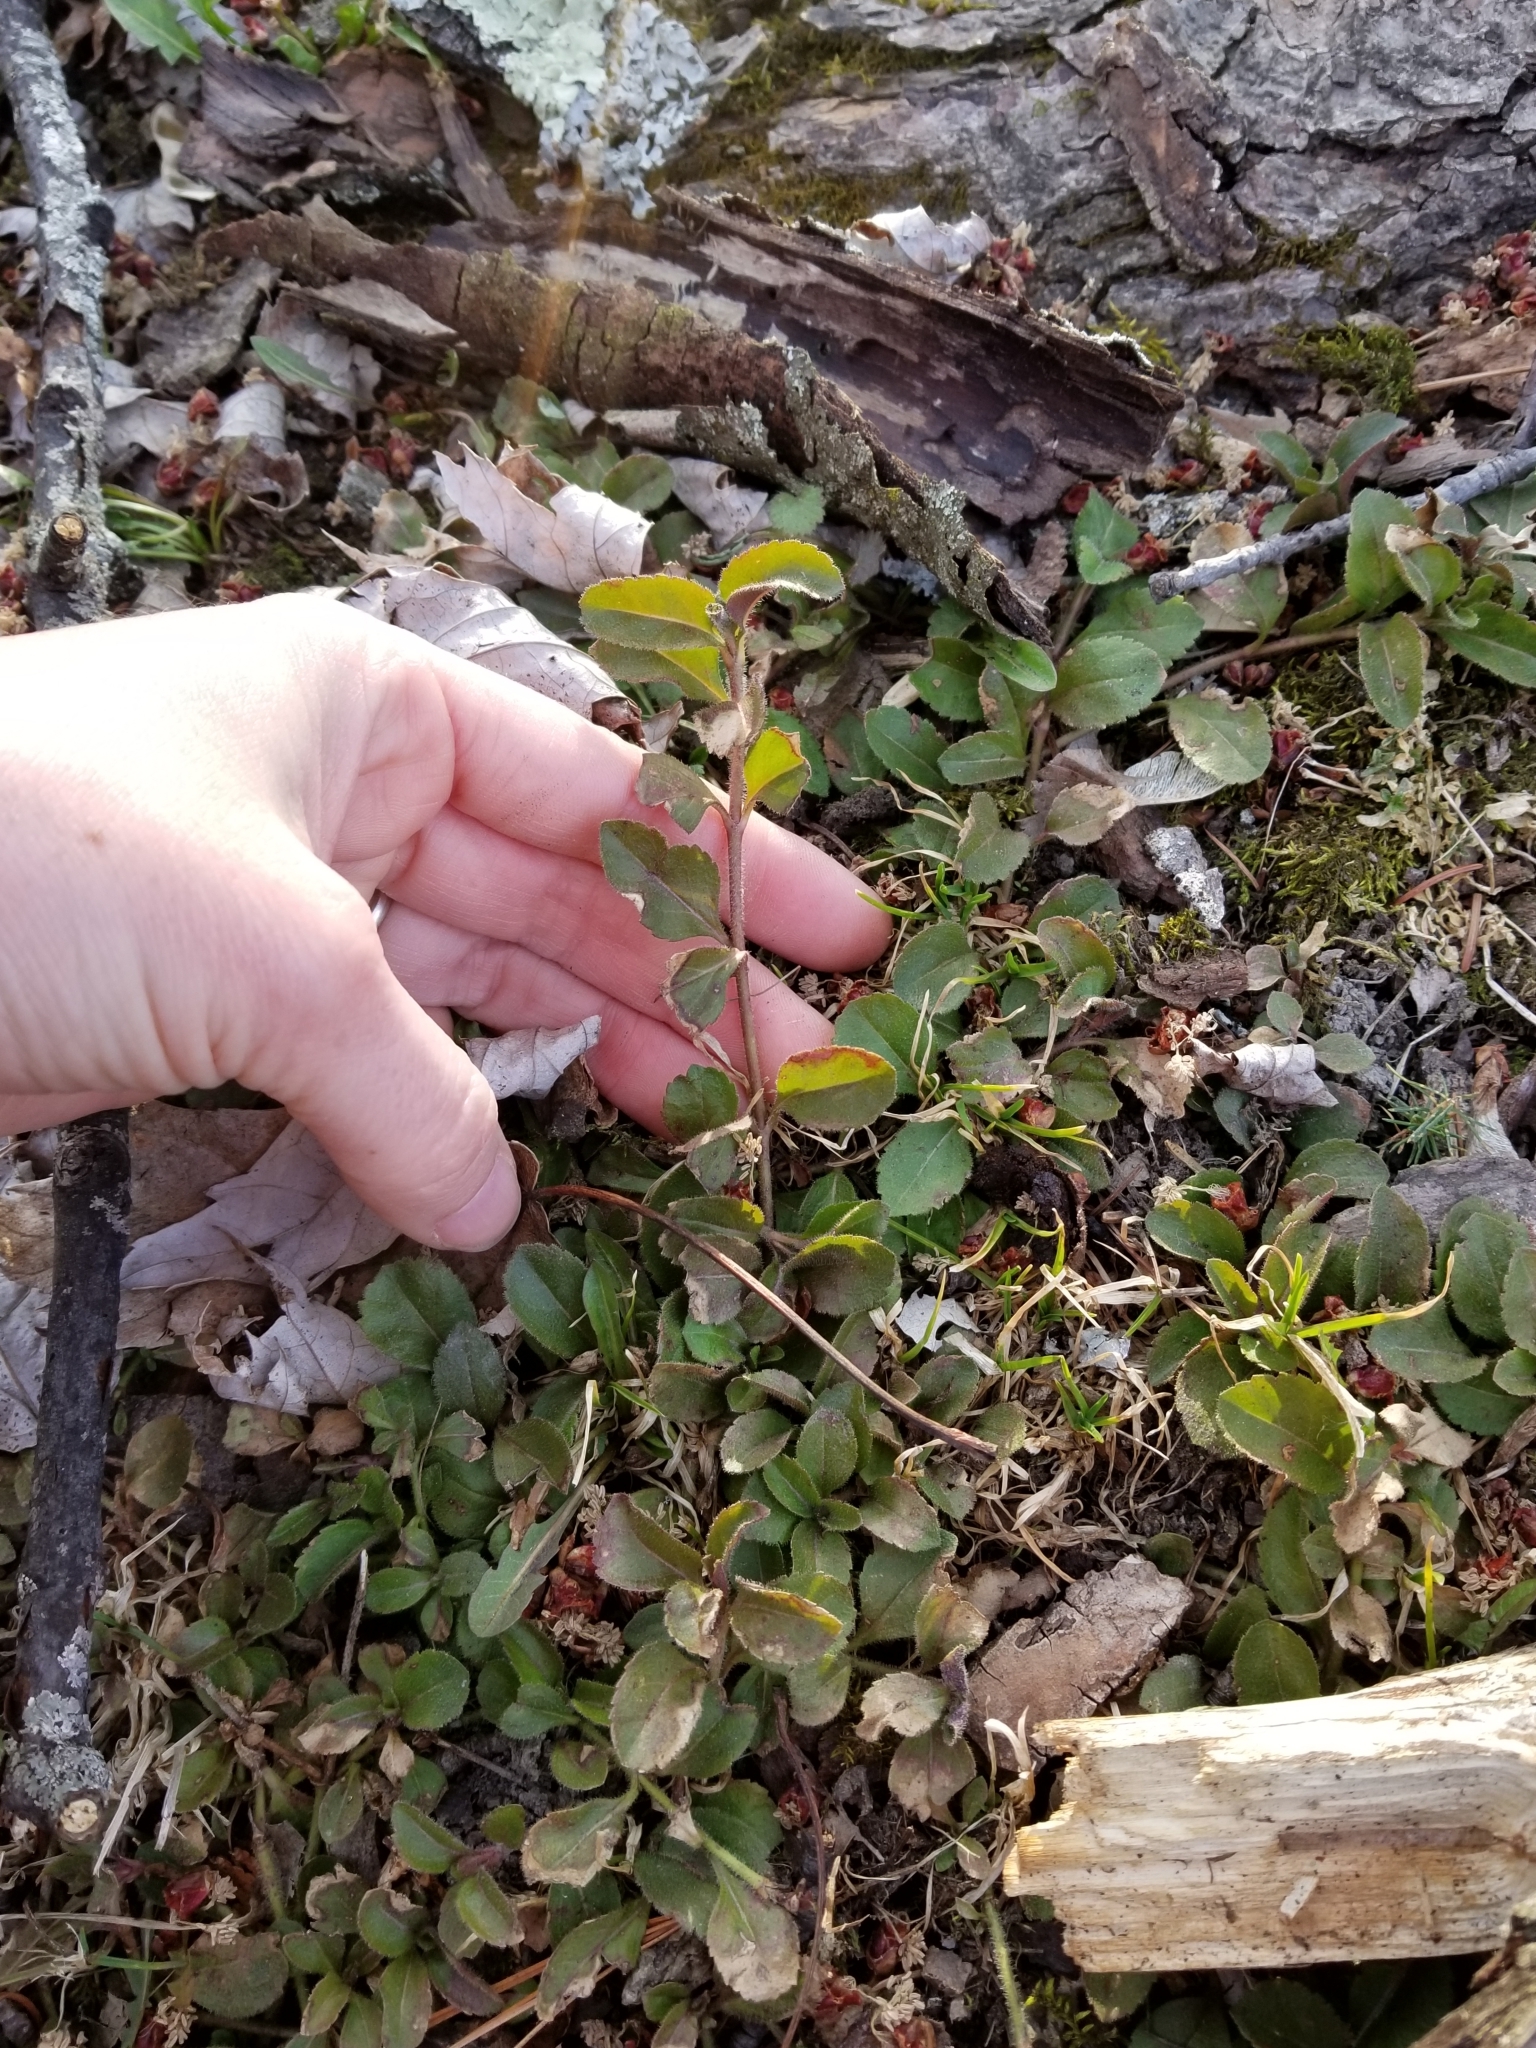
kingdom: Plantae
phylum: Tracheophyta
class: Magnoliopsida
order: Lamiales
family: Plantaginaceae
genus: Veronica
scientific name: Veronica officinalis
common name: Common speedwell
